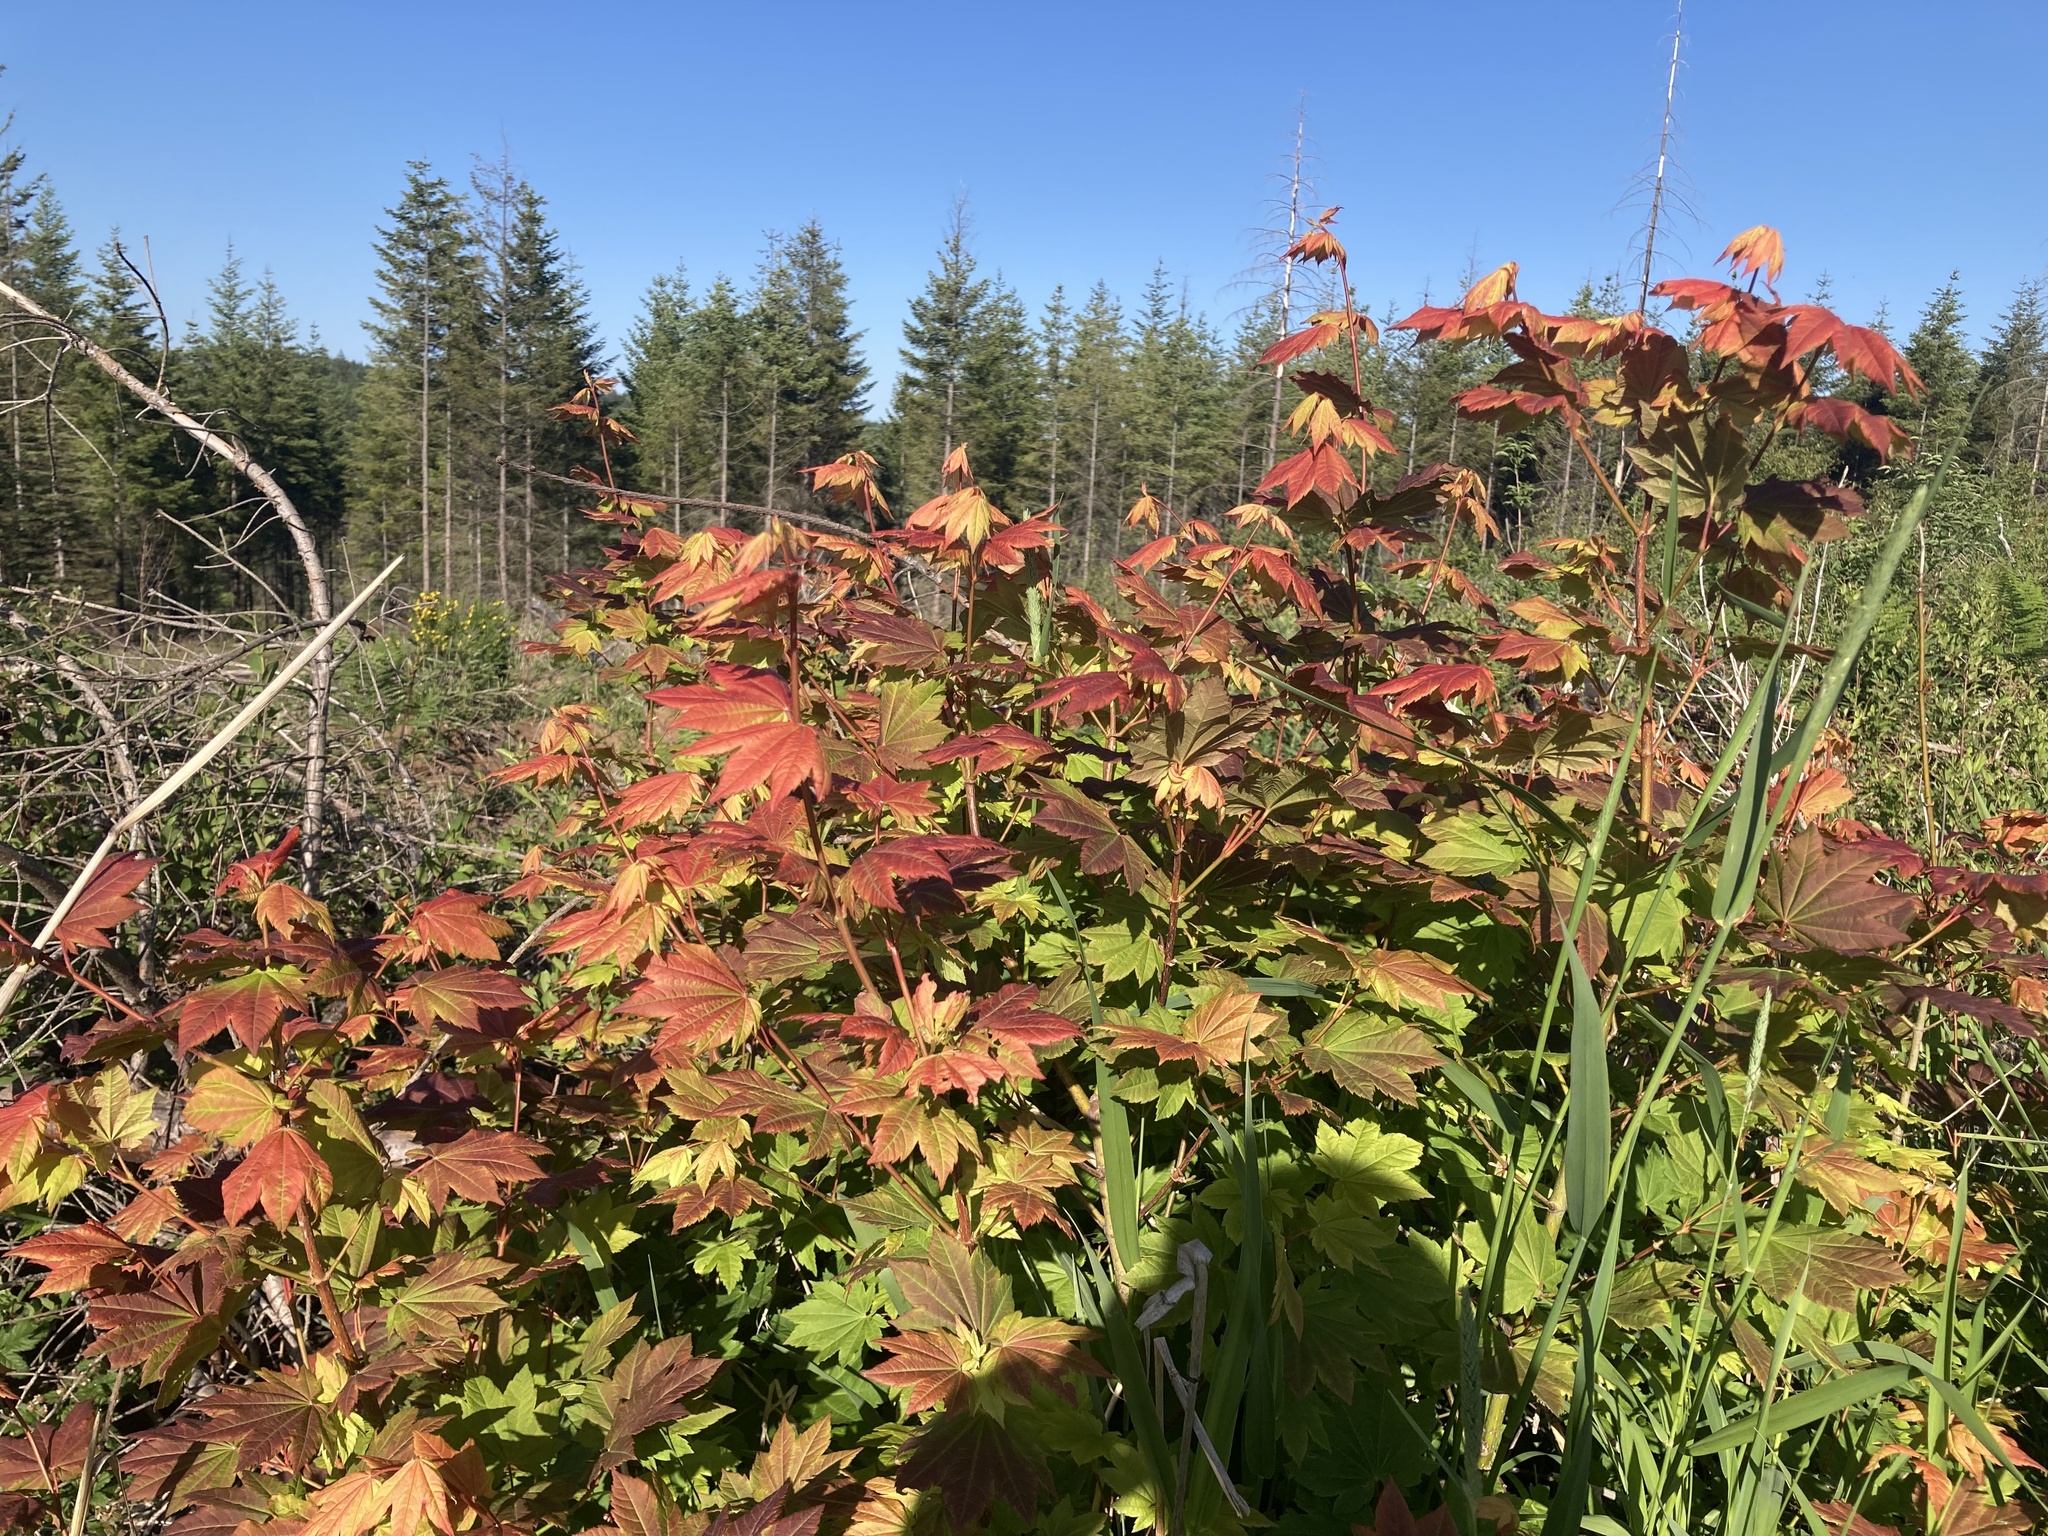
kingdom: Plantae
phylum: Tracheophyta
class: Magnoliopsida
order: Sapindales
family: Sapindaceae
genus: Acer
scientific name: Acer circinatum
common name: Vine maple
